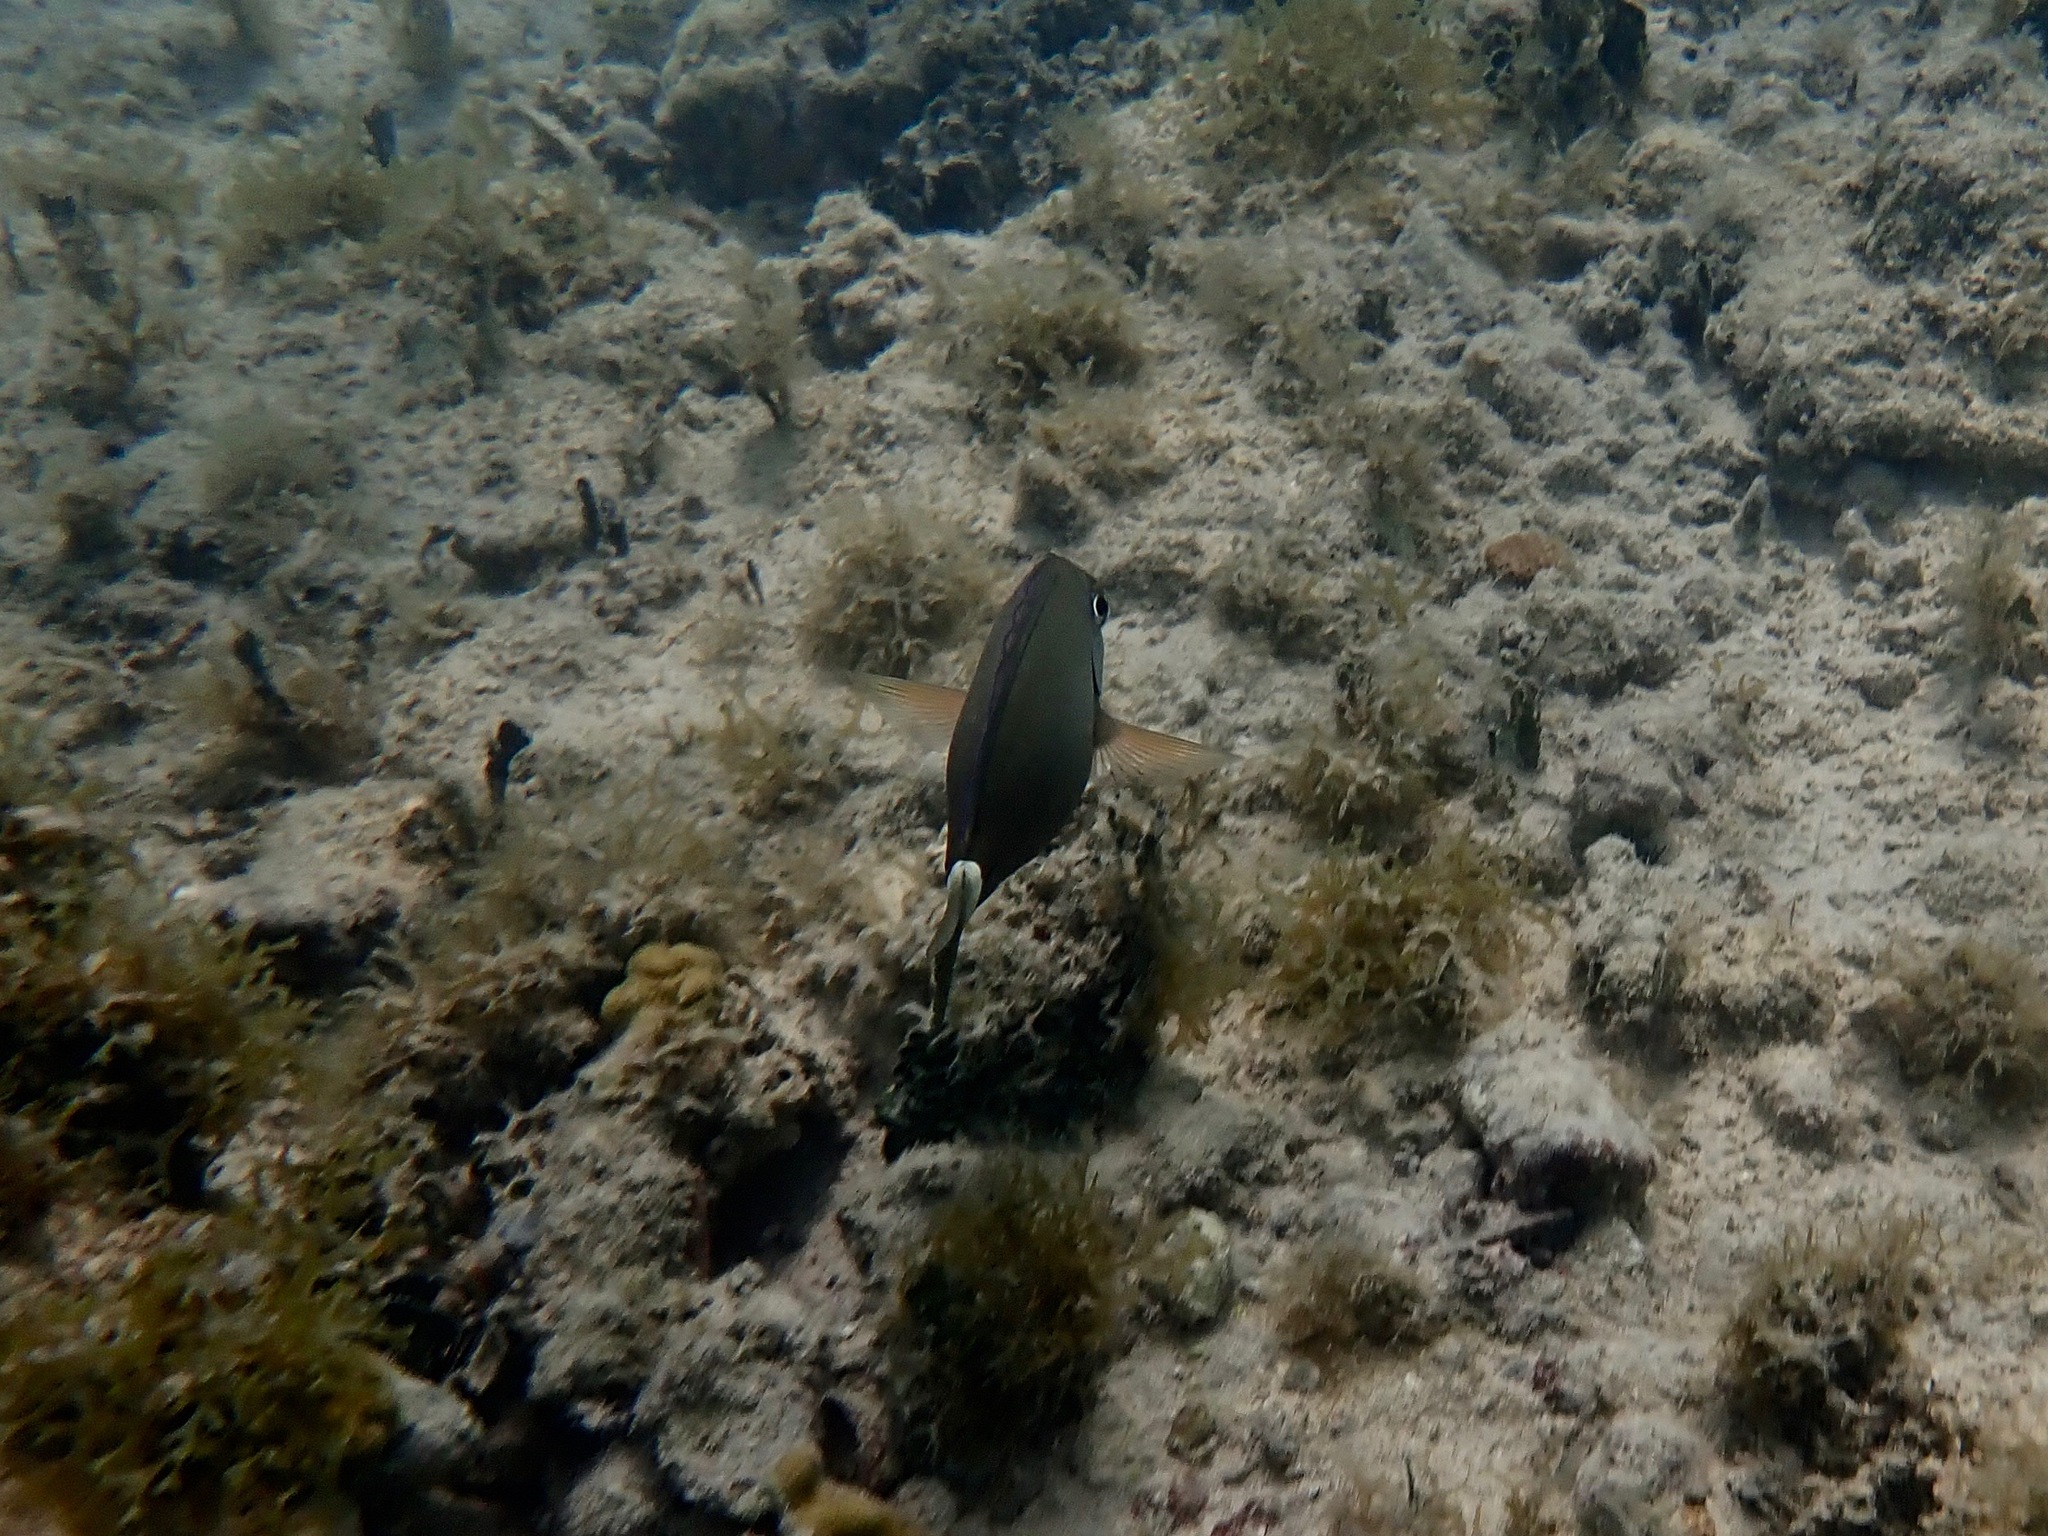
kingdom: Animalia
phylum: Chordata
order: Perciformes
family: Acanthuridae
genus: Acanthurus
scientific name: Acanthurus bahianus
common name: Ocean surgeon
